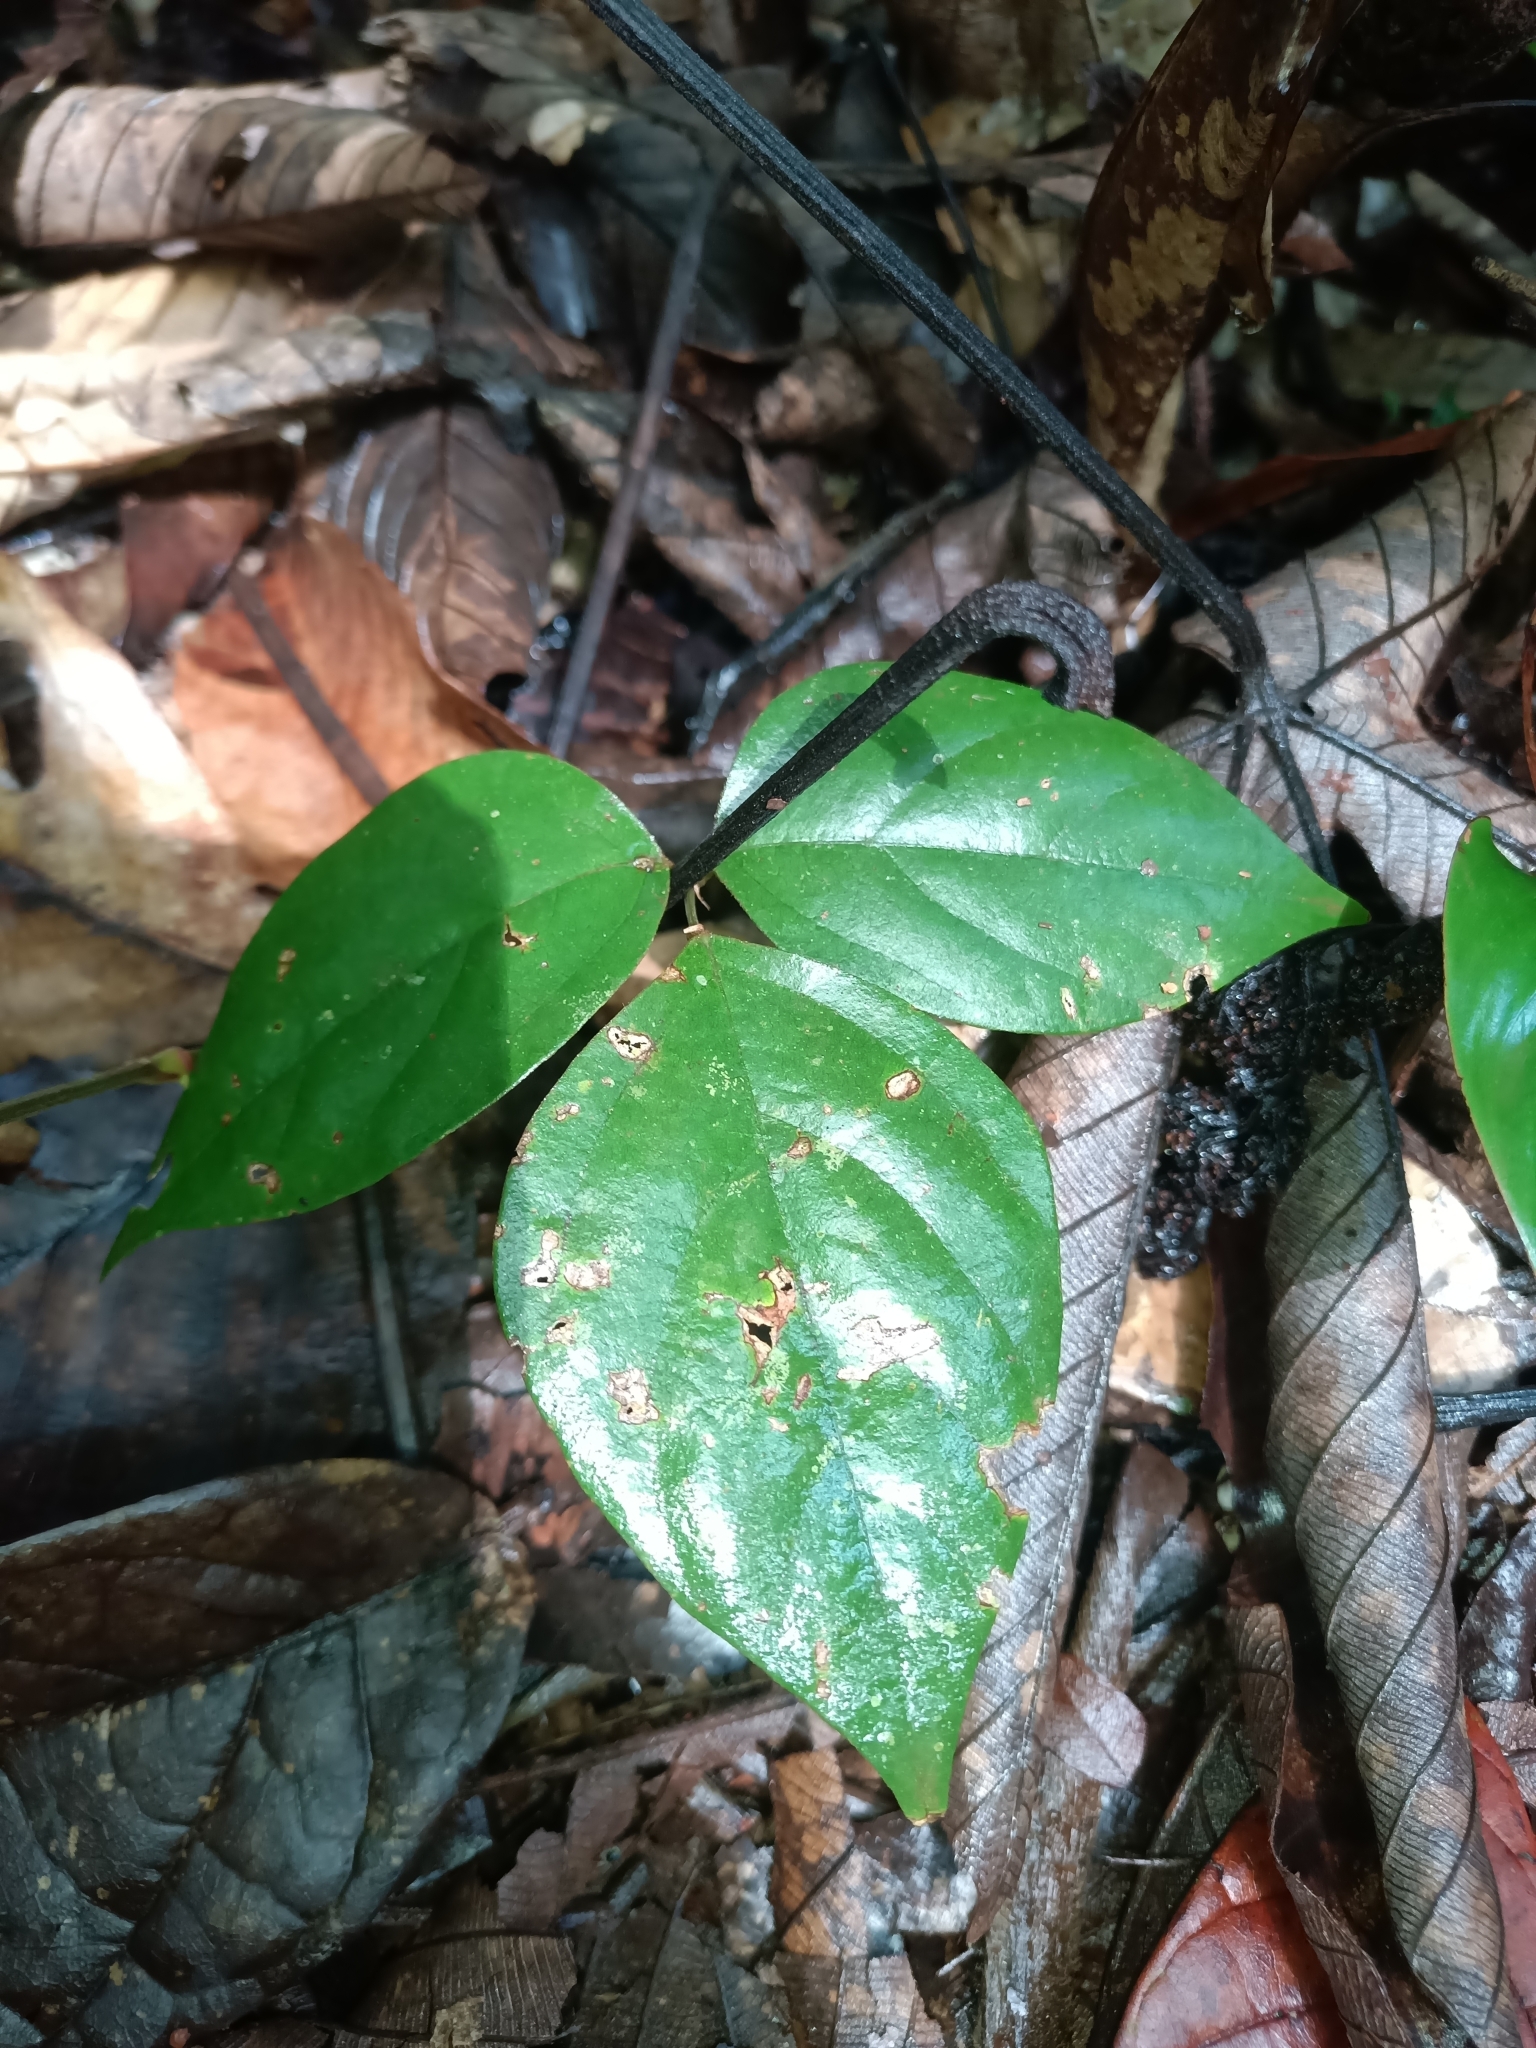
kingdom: Plantae
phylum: Tracheophyta
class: Magnoliopsida
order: Fabales
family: Fabaceae
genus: Desmodium
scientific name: Desmodium axillare
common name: Wire with
